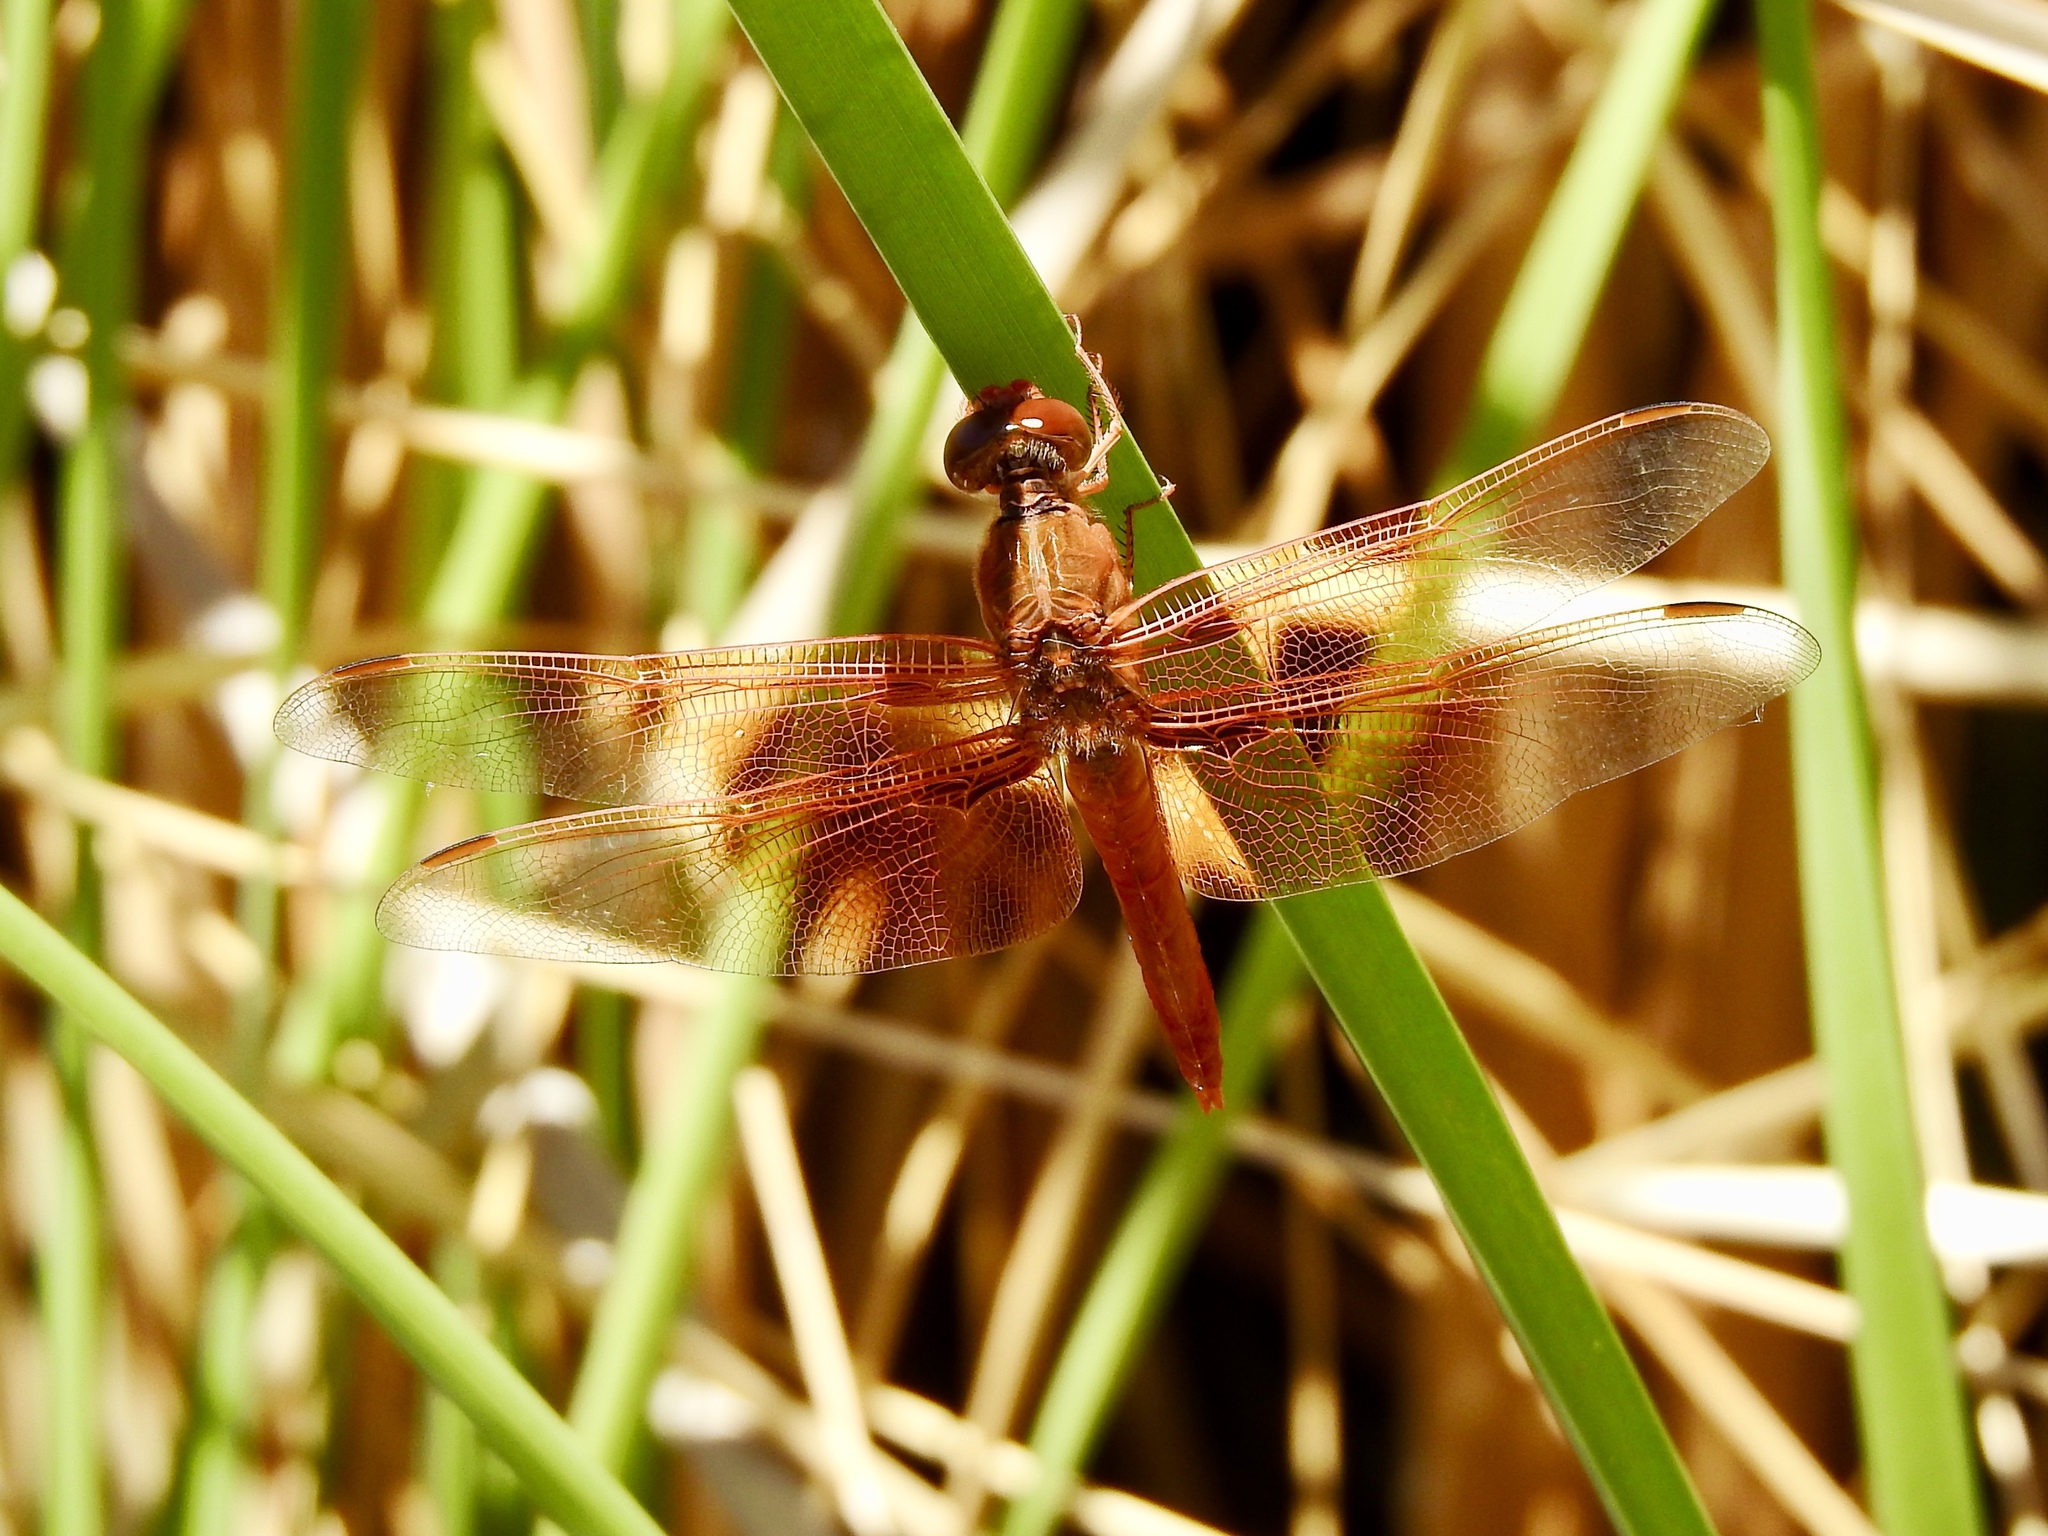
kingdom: Animalia
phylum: Arthropoda
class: Insecta
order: Odonata
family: Libellulidae
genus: Libellula
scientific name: Libellula saturata
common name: Flame skimmer
